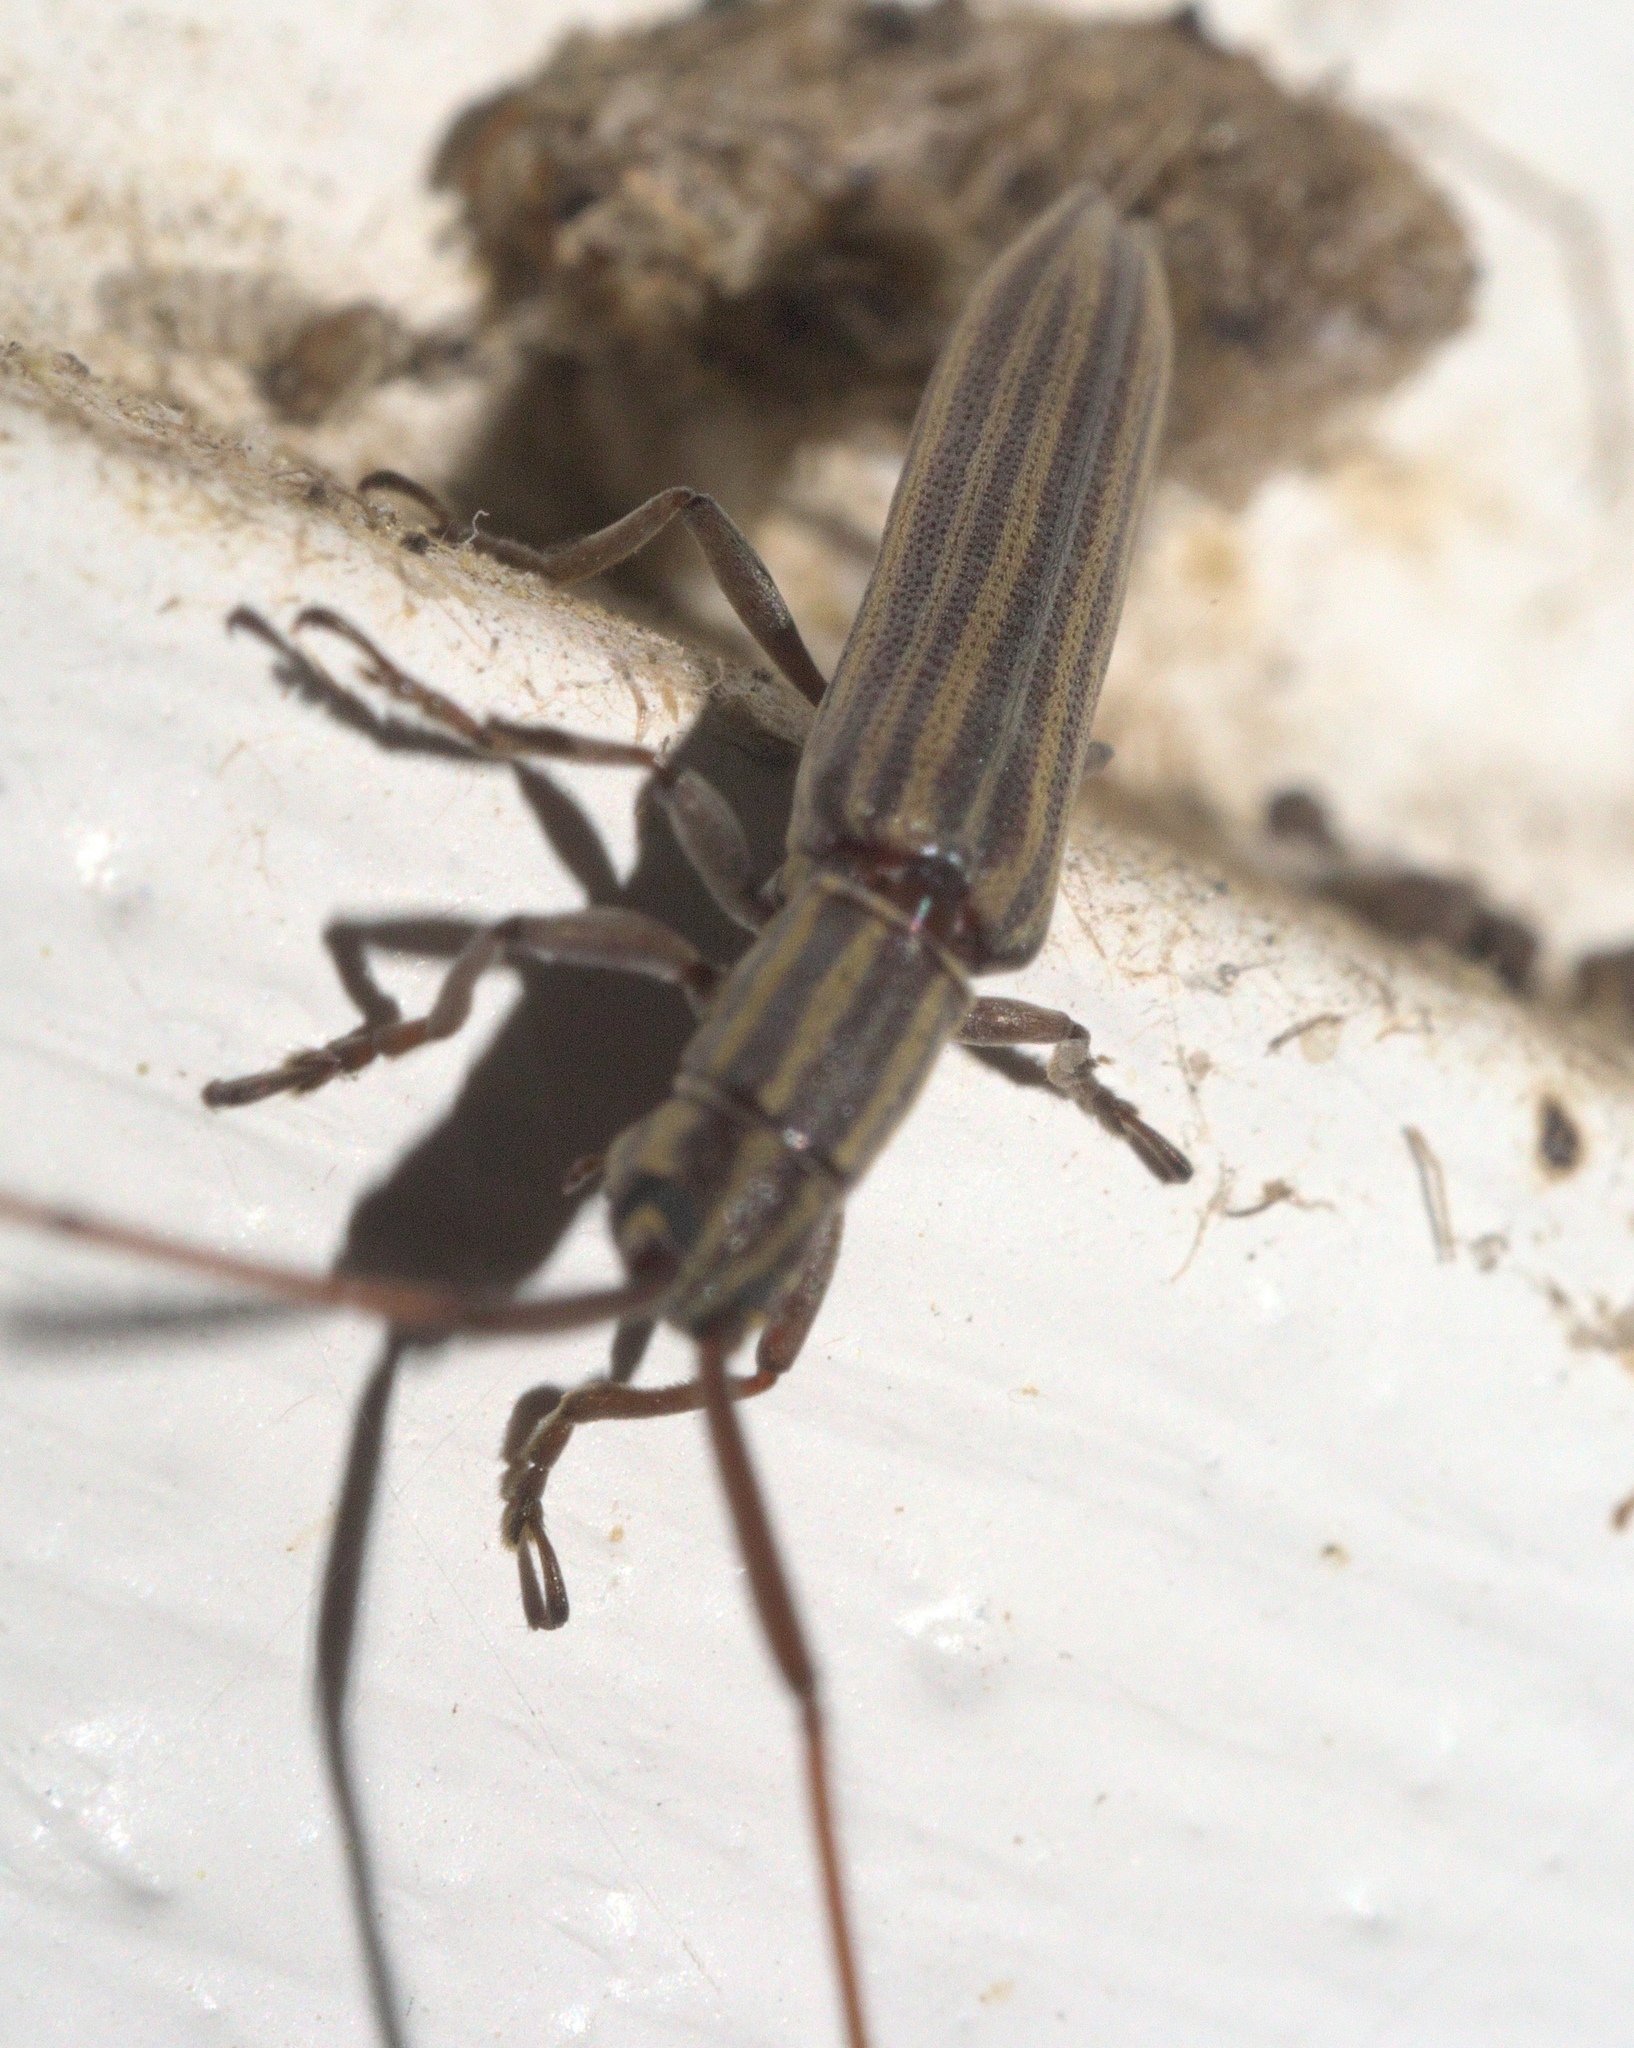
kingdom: Animalia
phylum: Arthropoda
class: Insecta
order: Coleoptera
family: Cerambycidae
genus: Hippopsis
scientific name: Hippopsis
